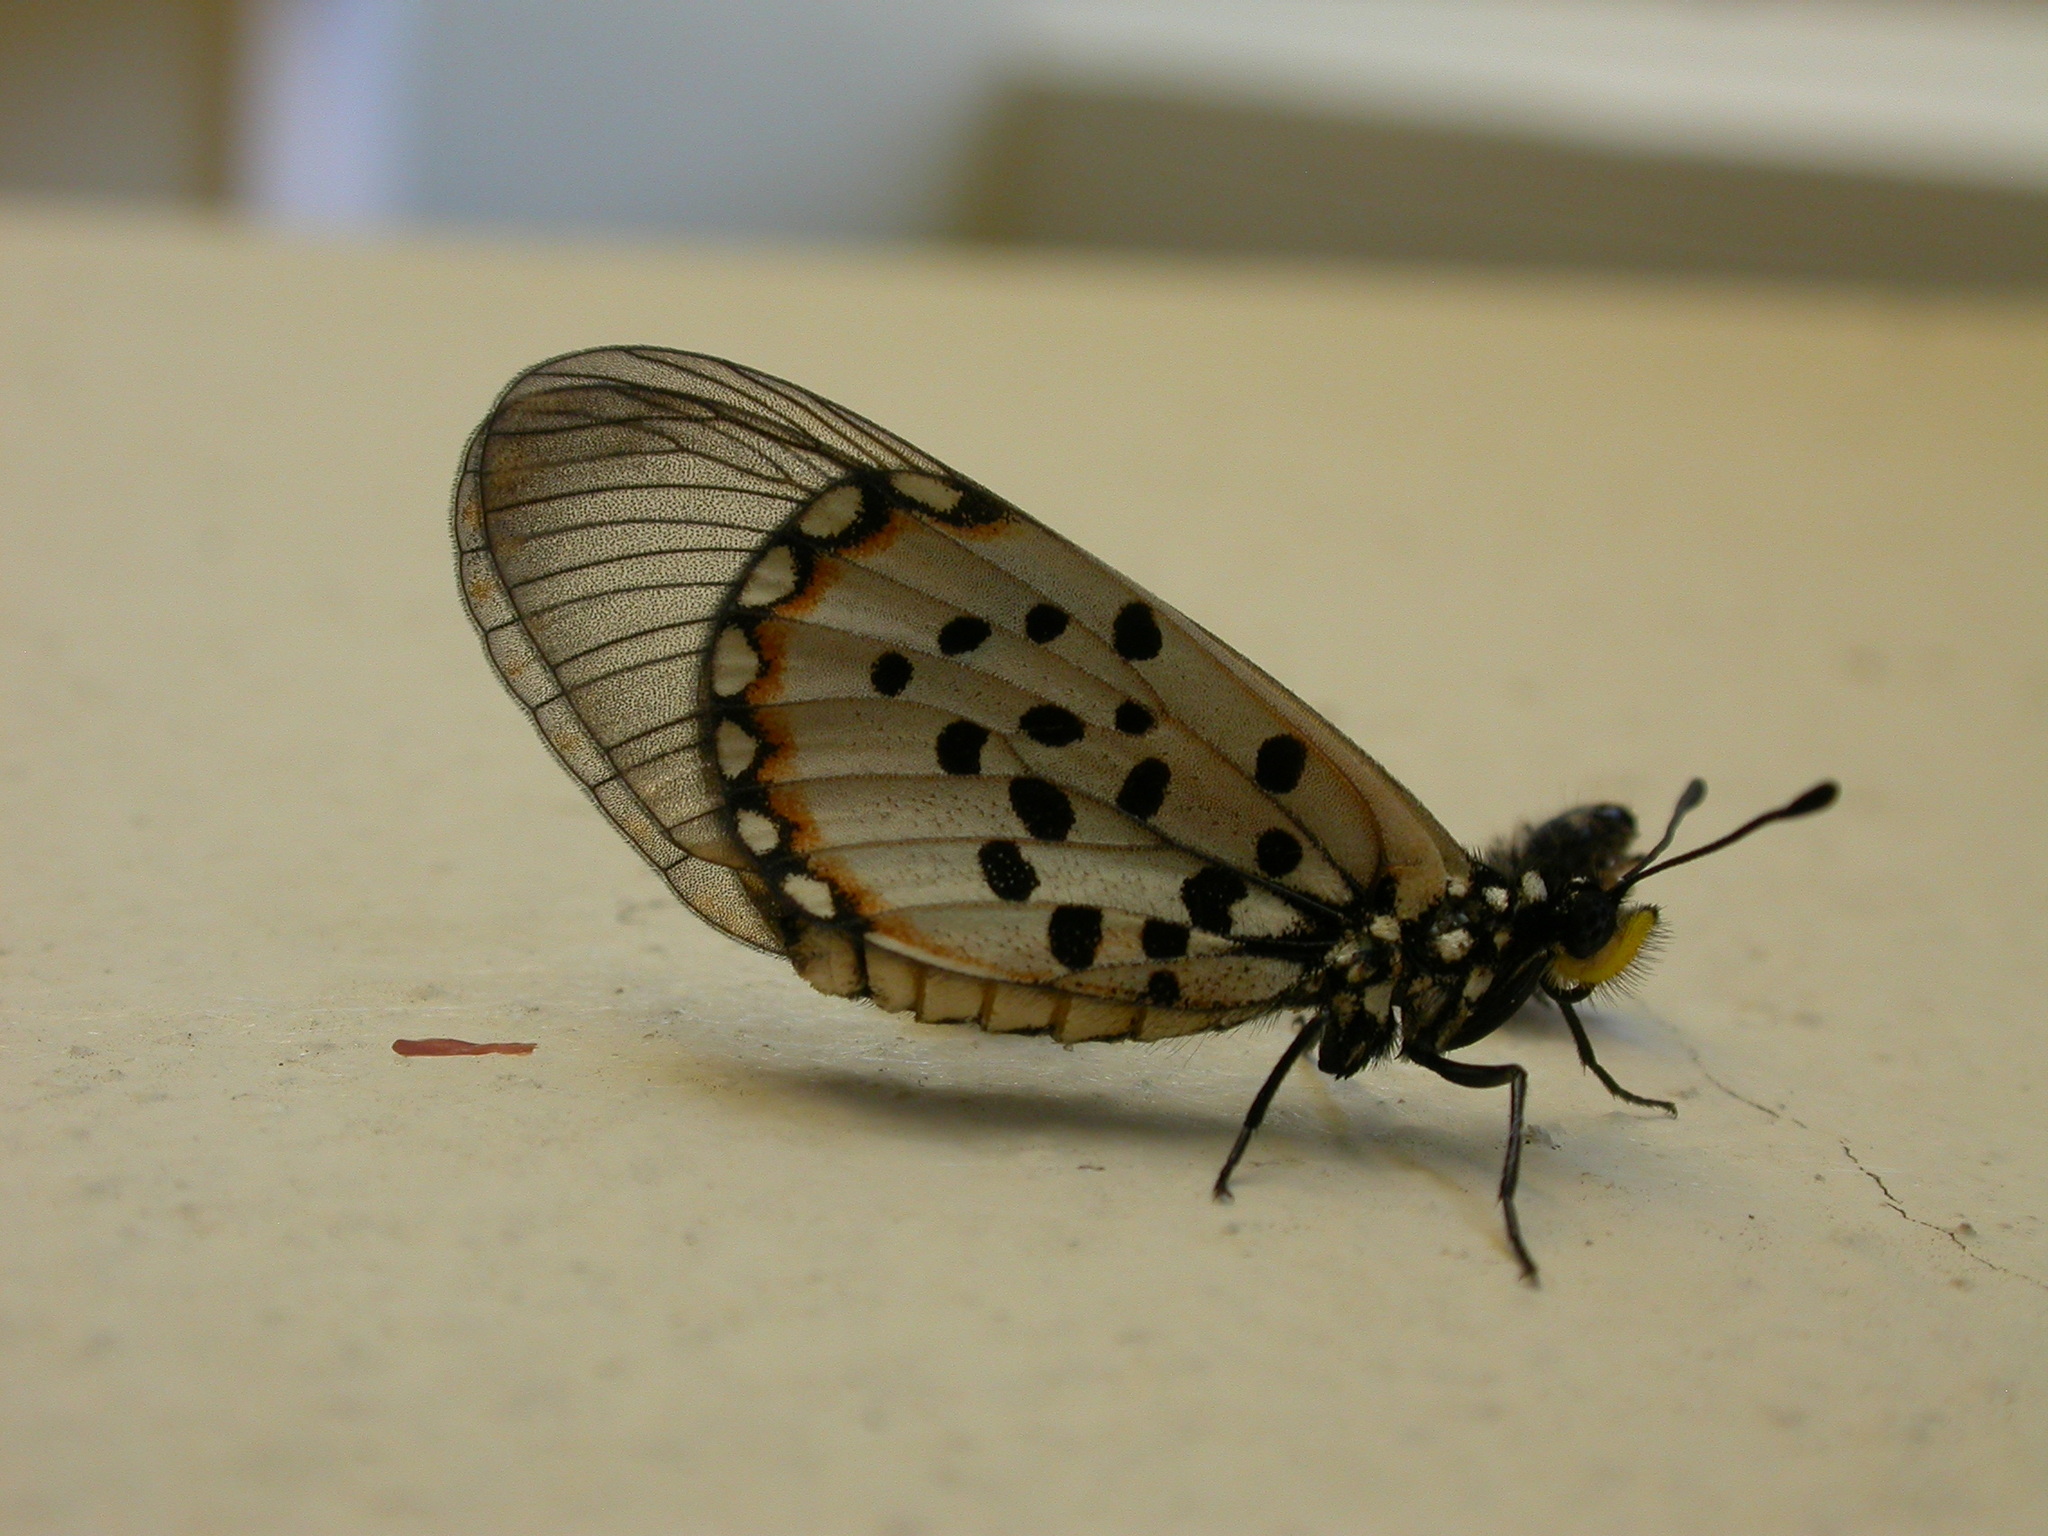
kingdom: Animalia
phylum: Arthropoda
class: Insecta
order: Lepidoptera
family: Nymphalidae
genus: Acraea
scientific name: Acraea horta
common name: Garden acraea
